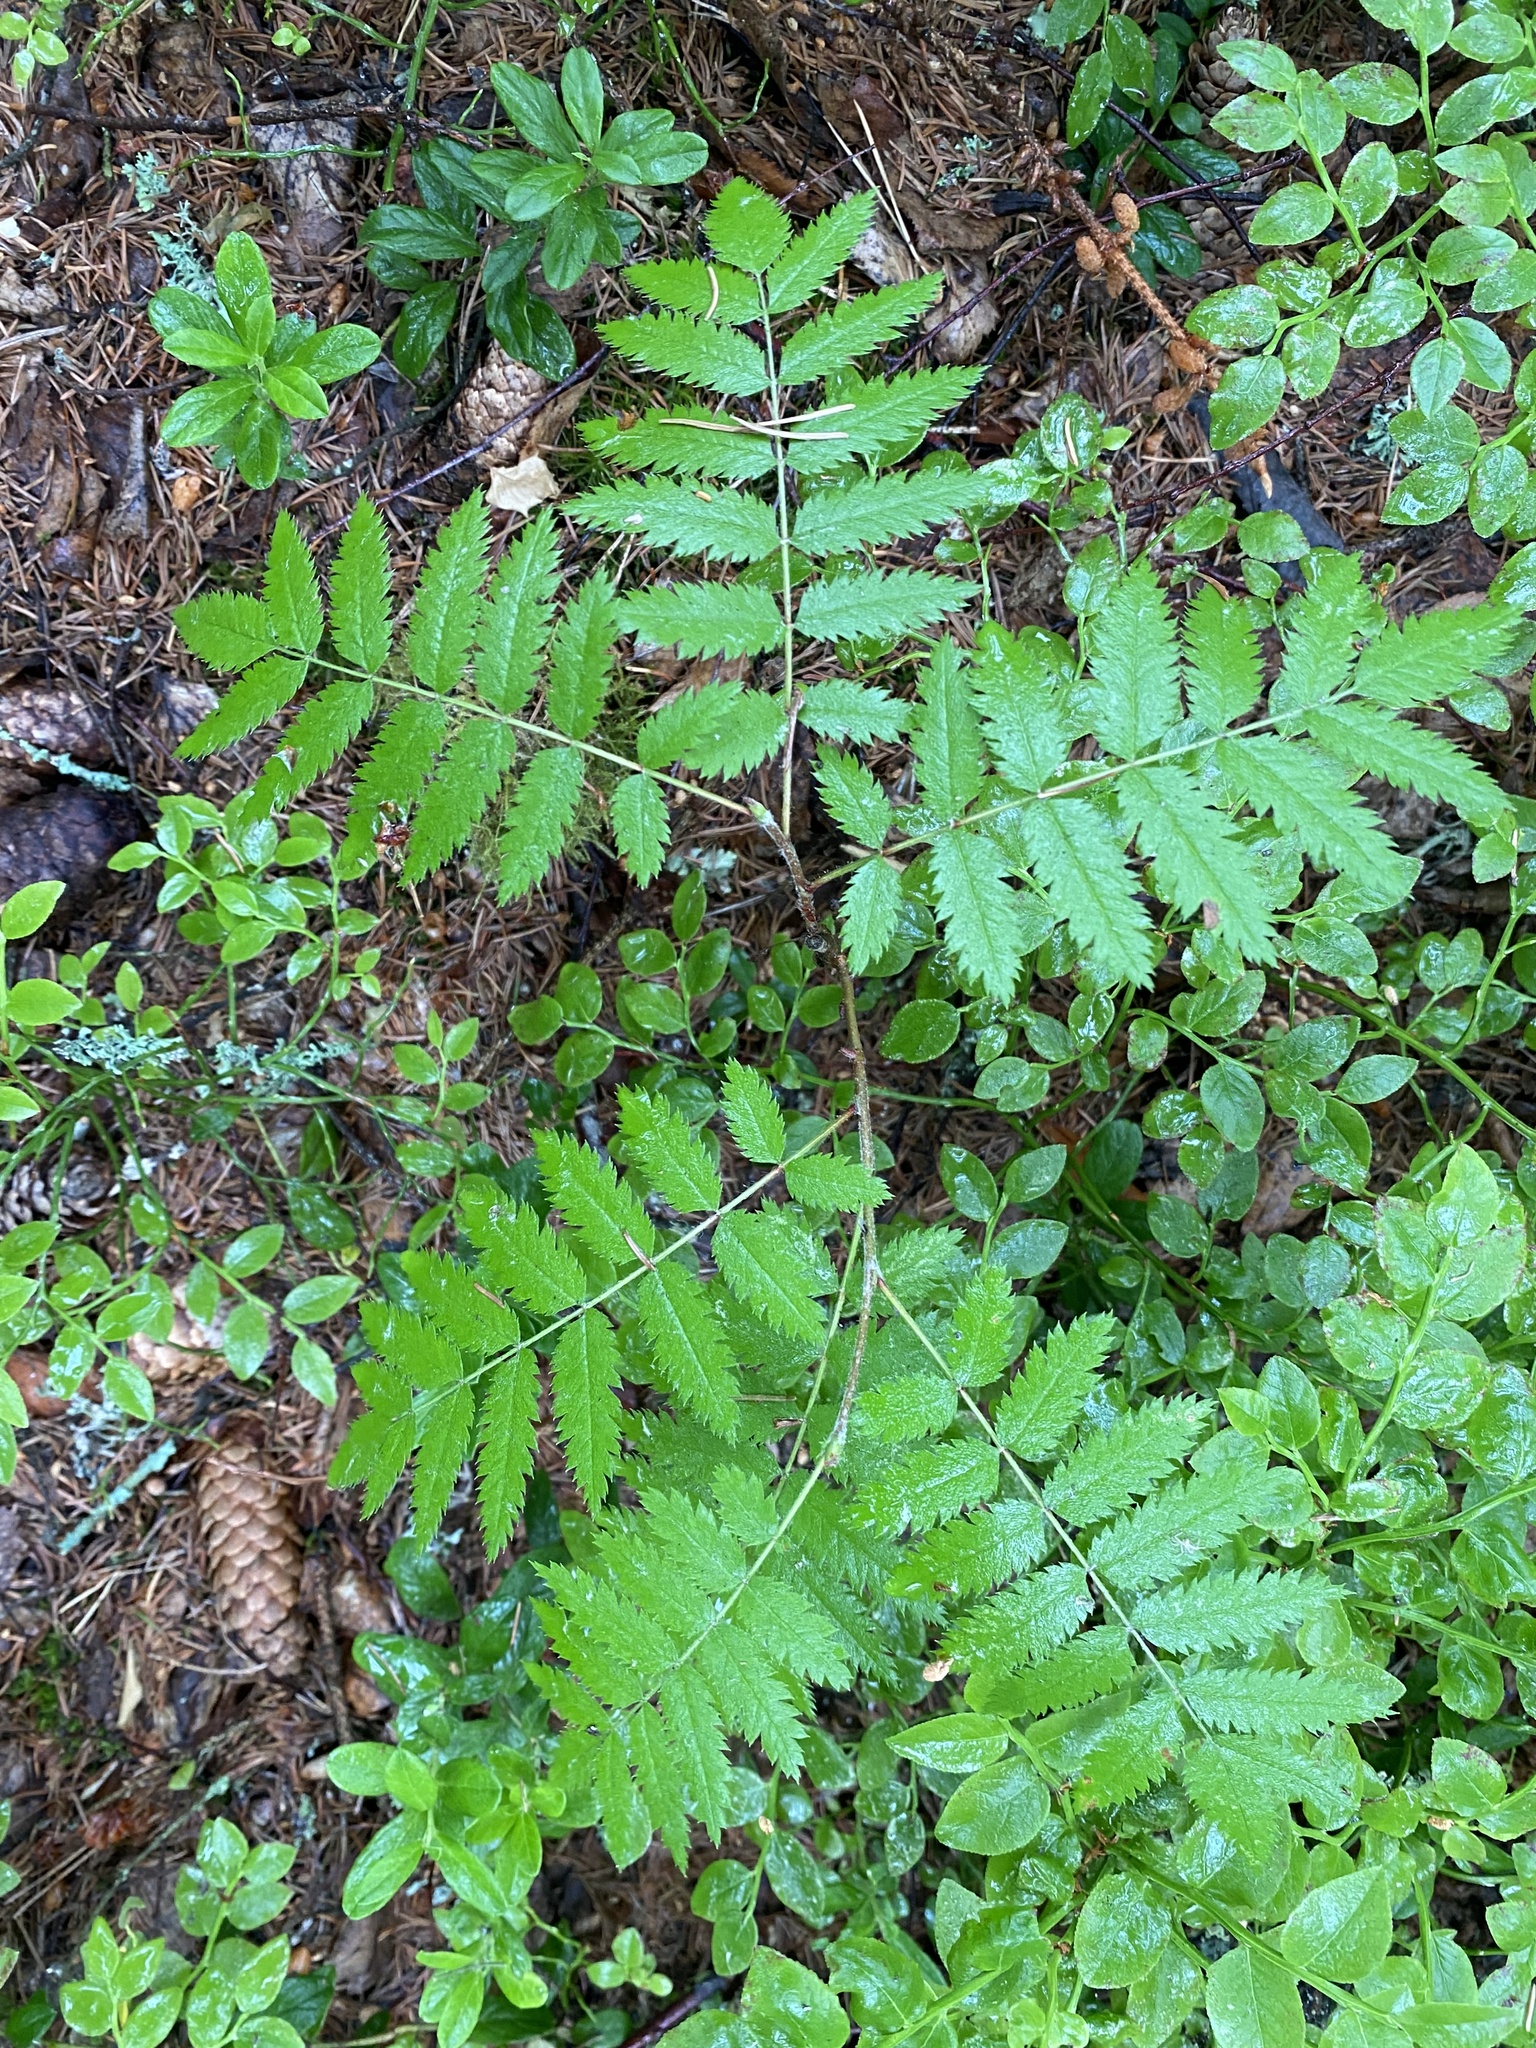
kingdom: Plantae
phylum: Tracheophyta
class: Magnoliopsida
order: Rosales
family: Rosaceae
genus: Sorbus
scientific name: Sorbus aucuparia
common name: Rowan
